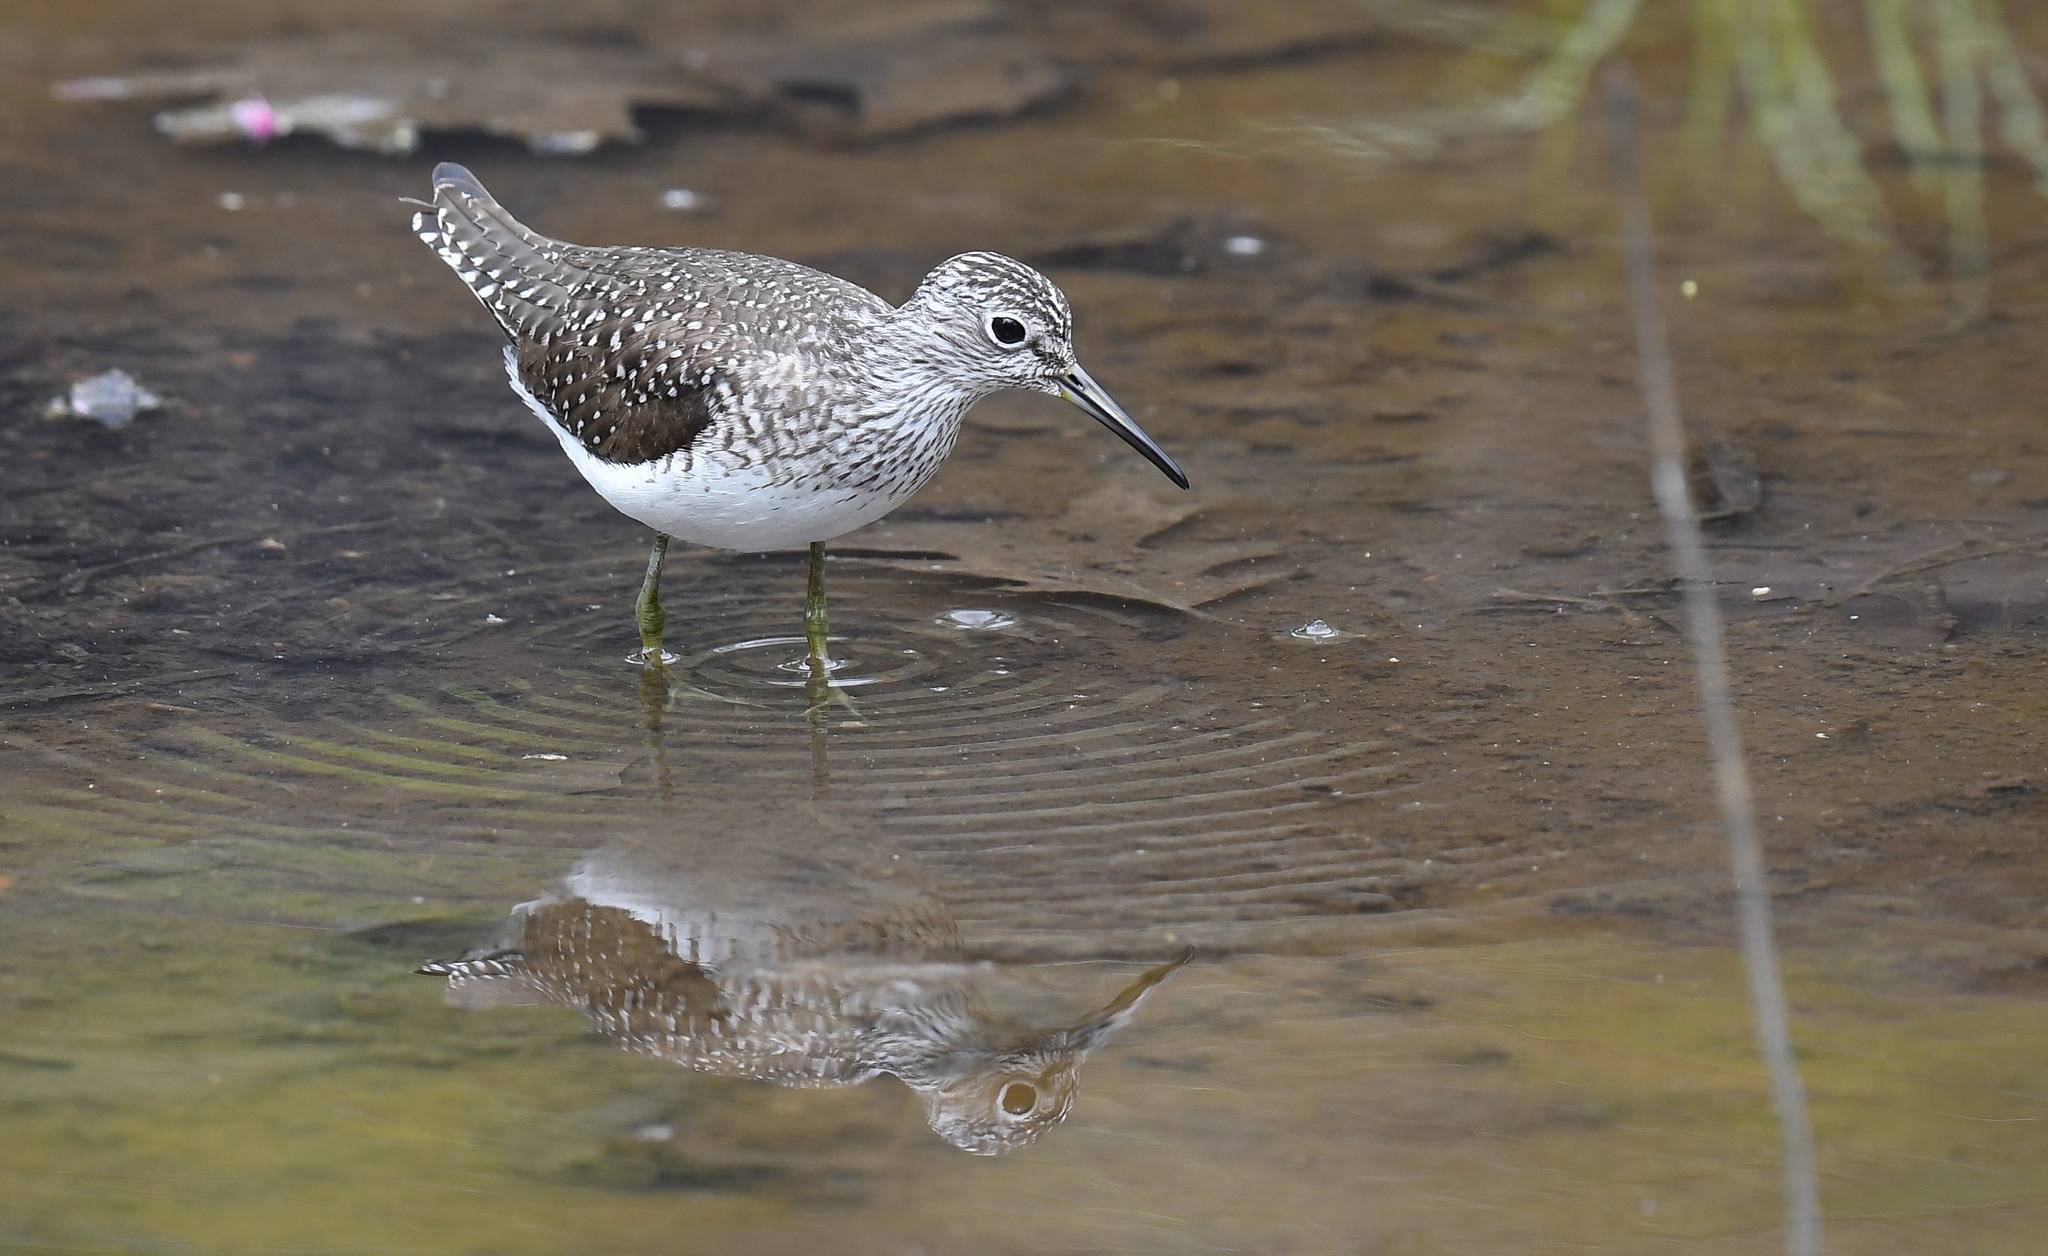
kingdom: Animalia
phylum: Chordata
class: Aves
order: Charadriiformes
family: Scolopacidae
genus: Tringa
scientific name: Tringa solitaria
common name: Solitary sandpiper
